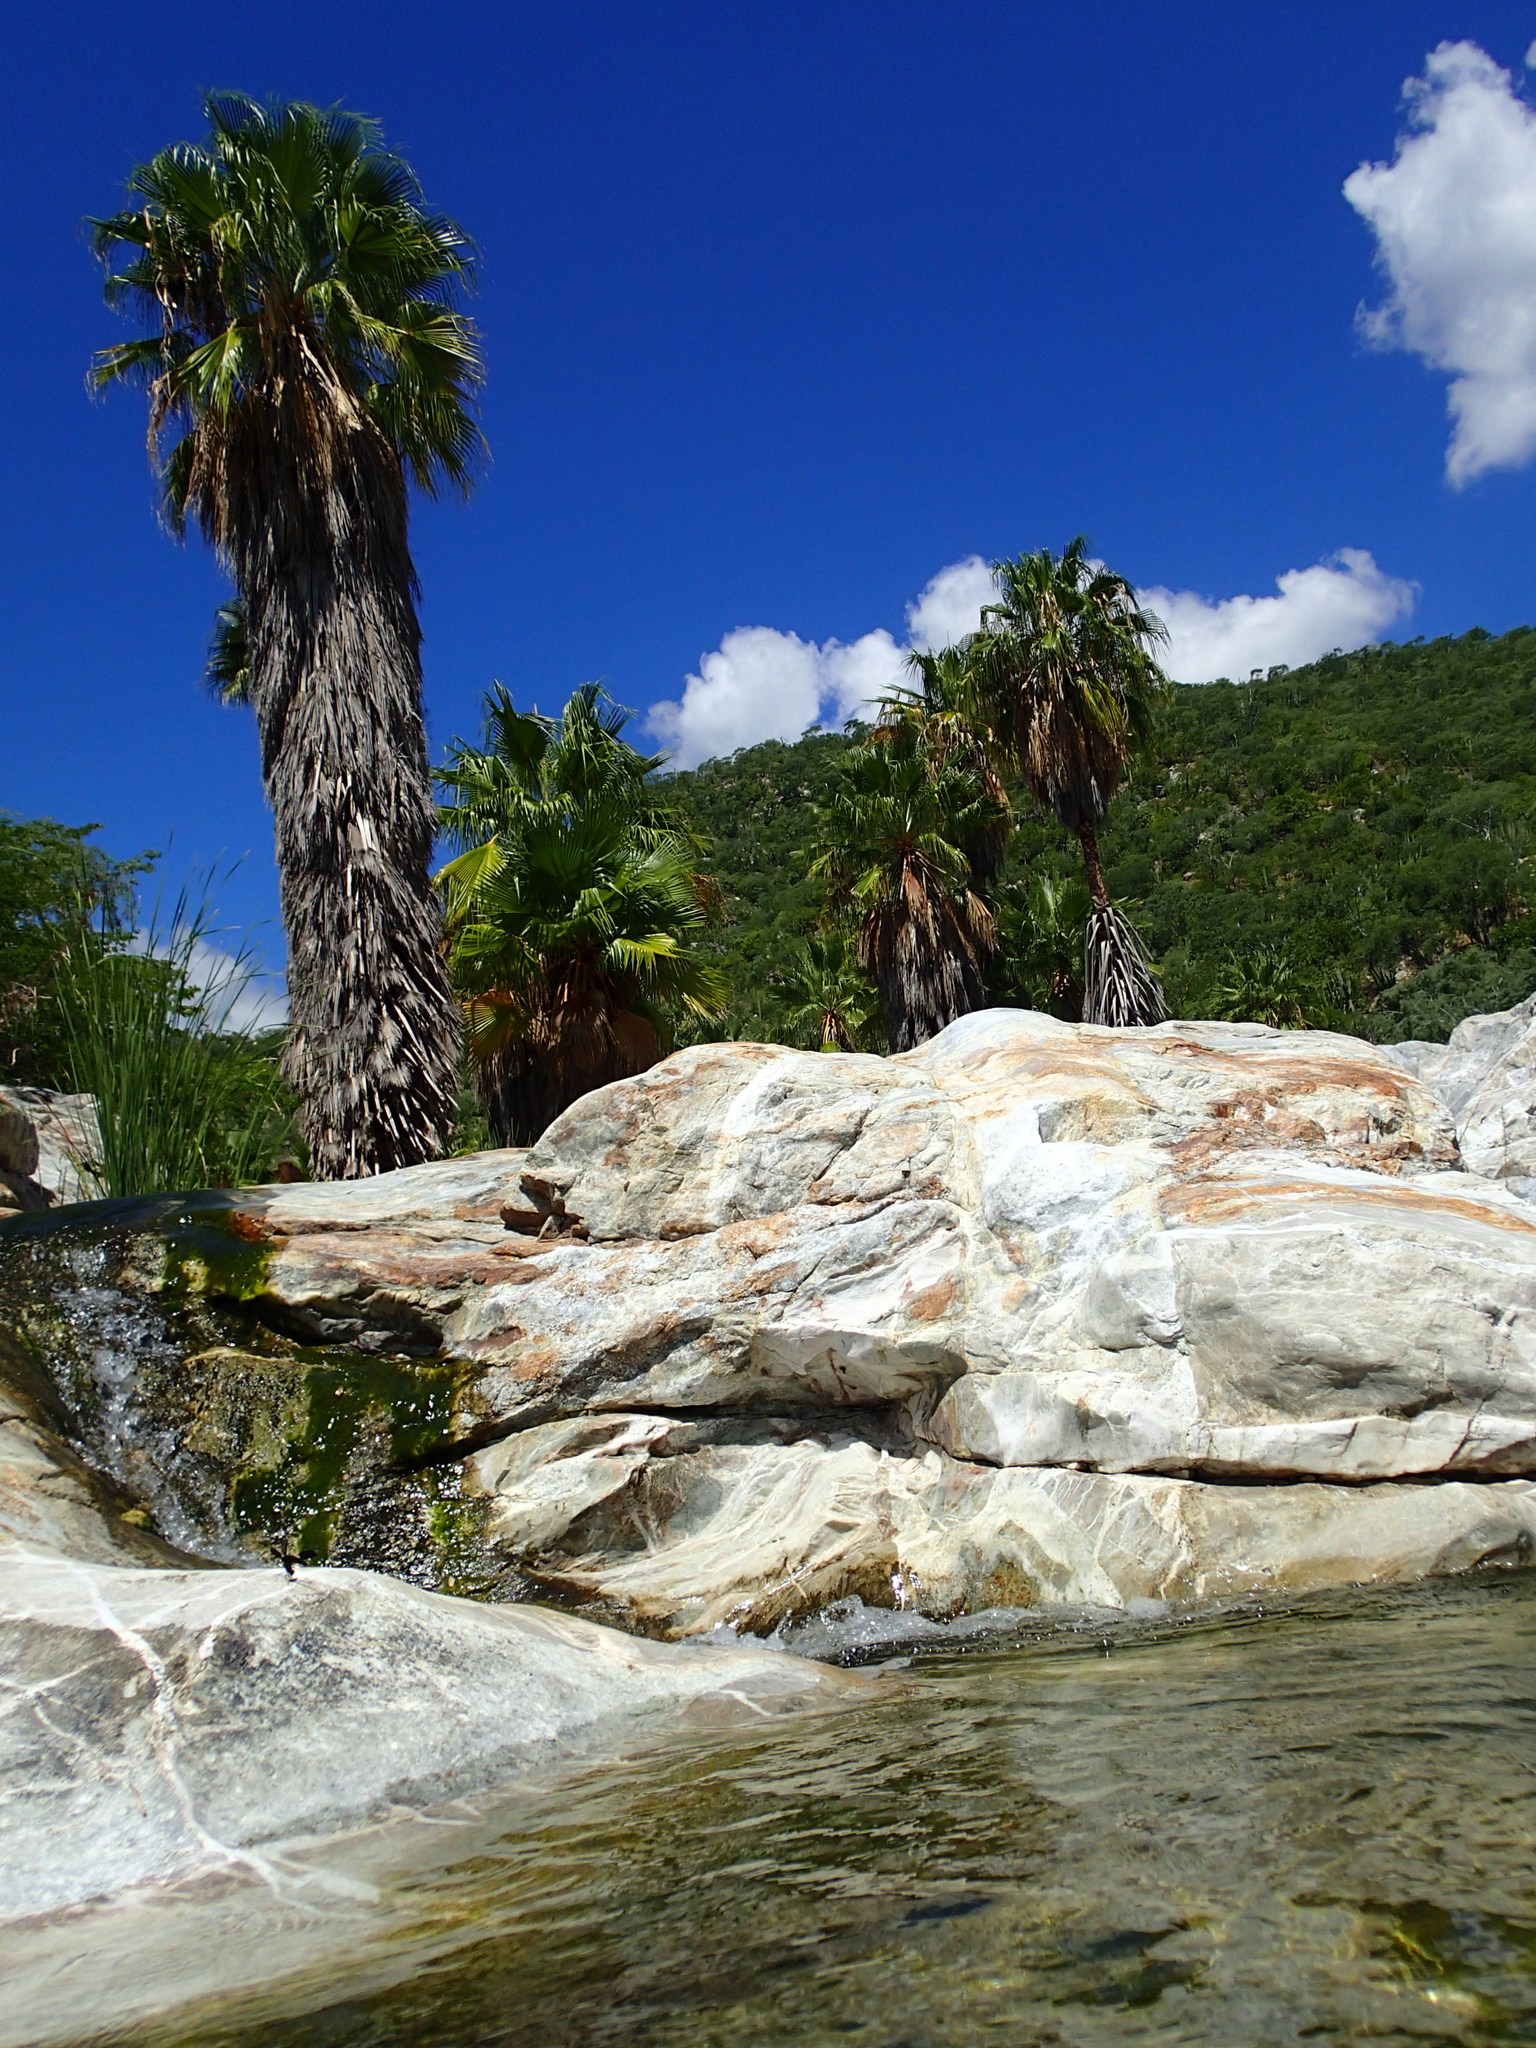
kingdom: Plantae
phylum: Tracheophyta
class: Liliopsida
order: Arecales
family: Arecaceae
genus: Washingtonia
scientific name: Washingtonia robusta
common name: Mexican fan palm
